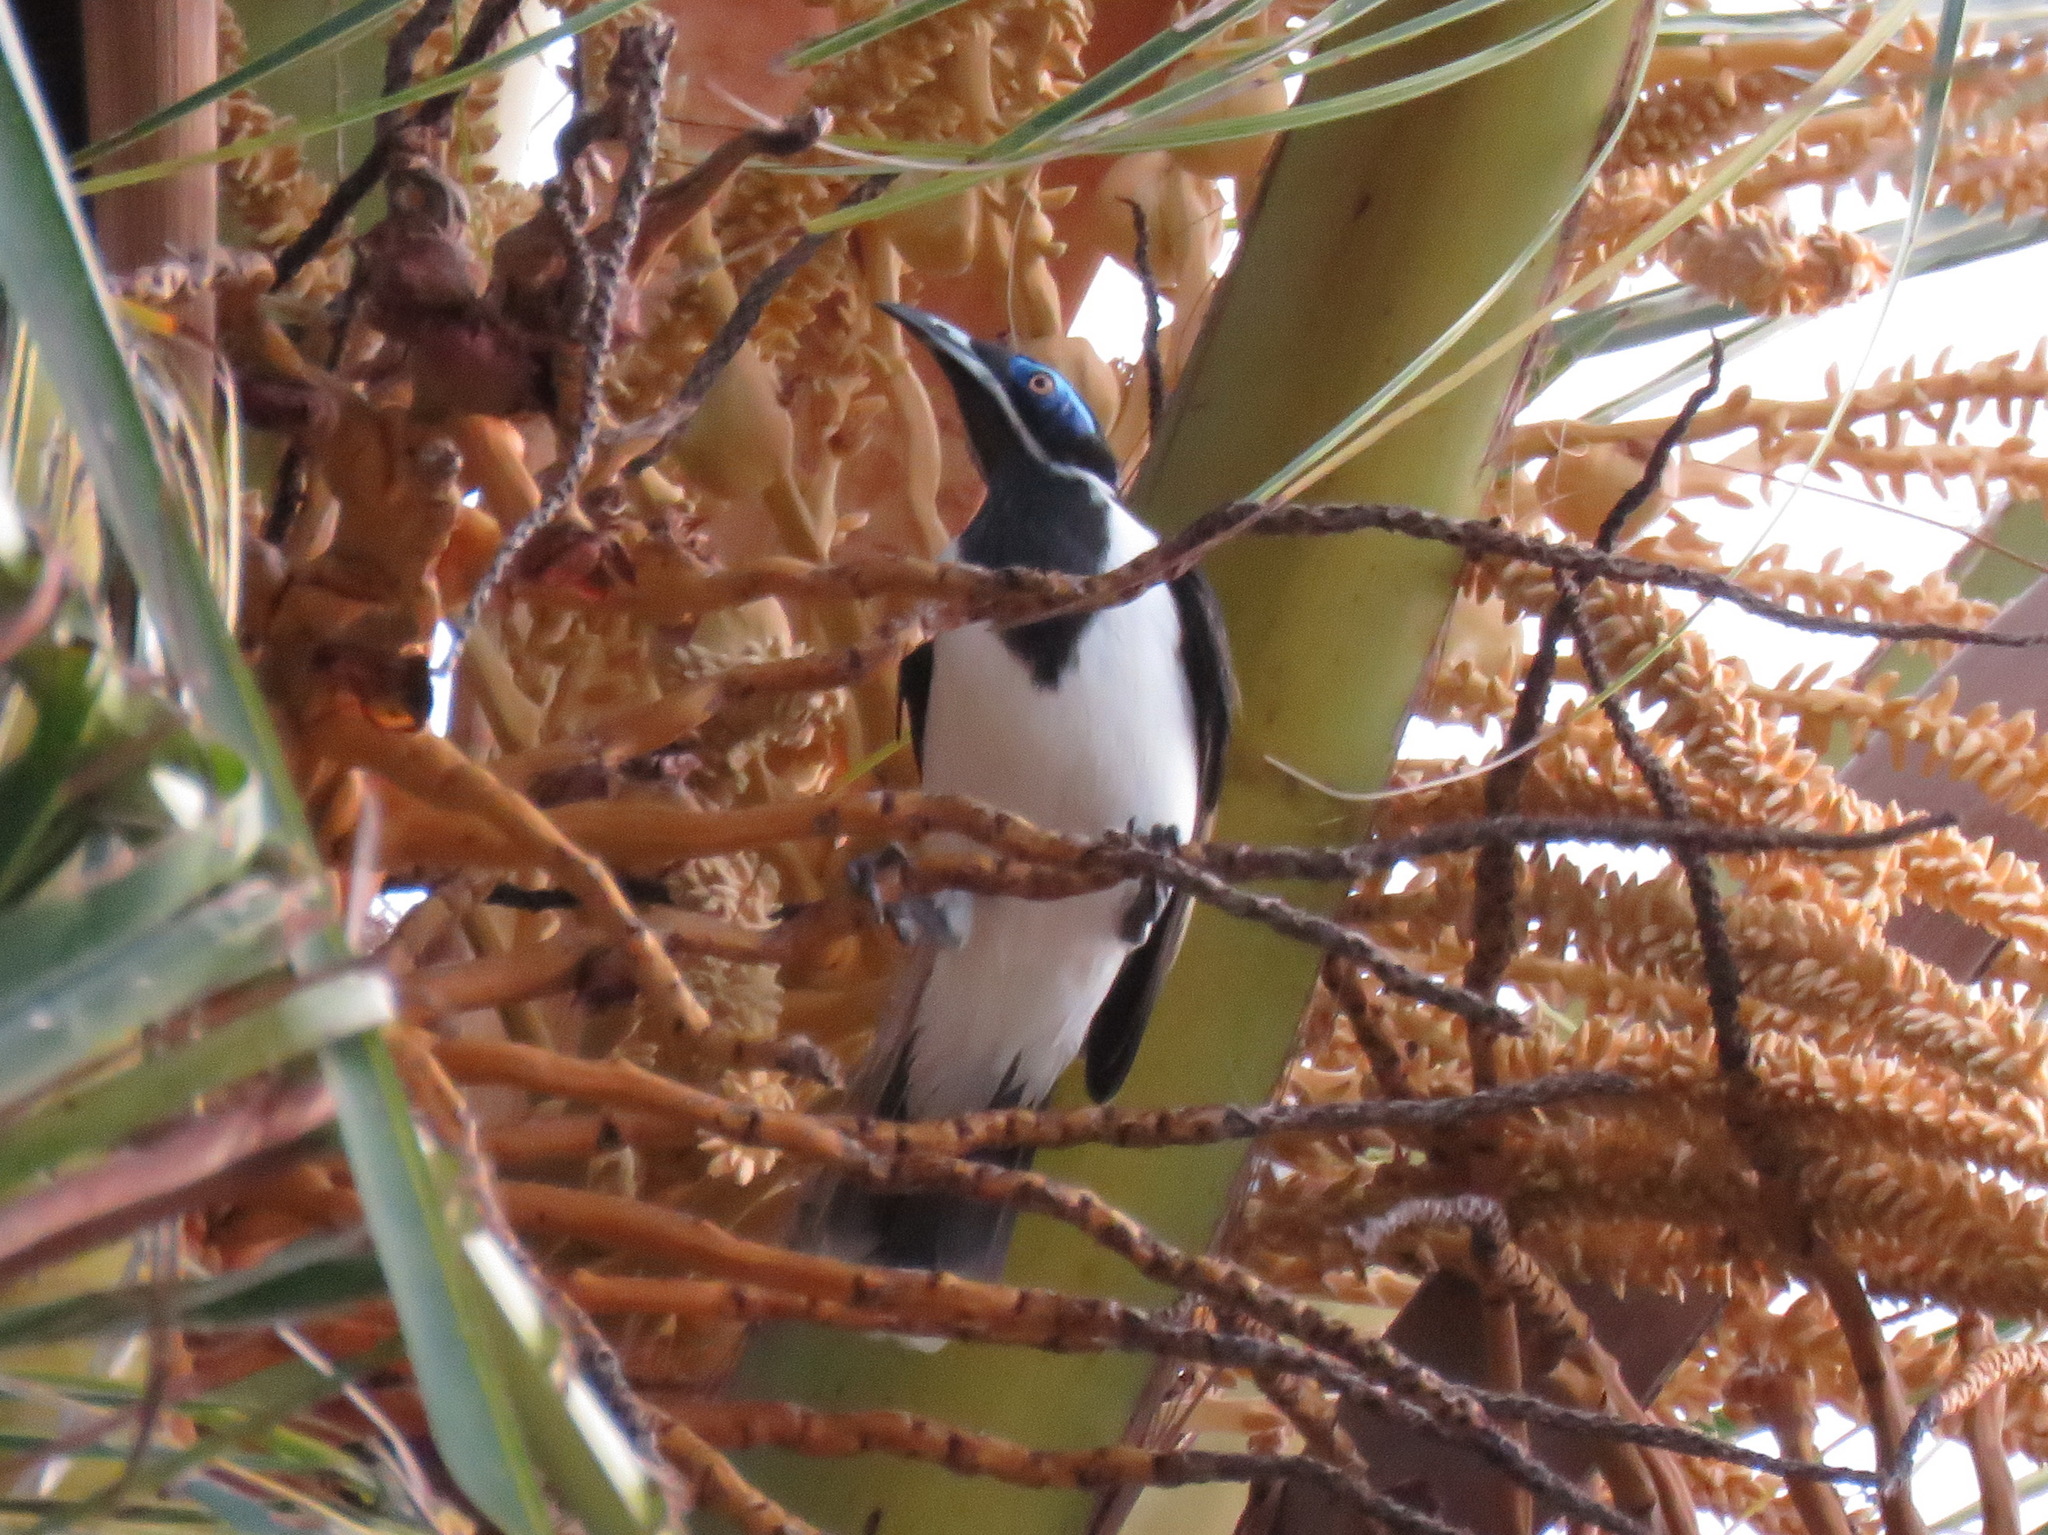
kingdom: Animalia
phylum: Chordata
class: Aves
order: Passeriformes
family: Meliphagidae
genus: Entomyzon
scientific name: Entomyzon cyanotis
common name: Blue-faced honeyeater
